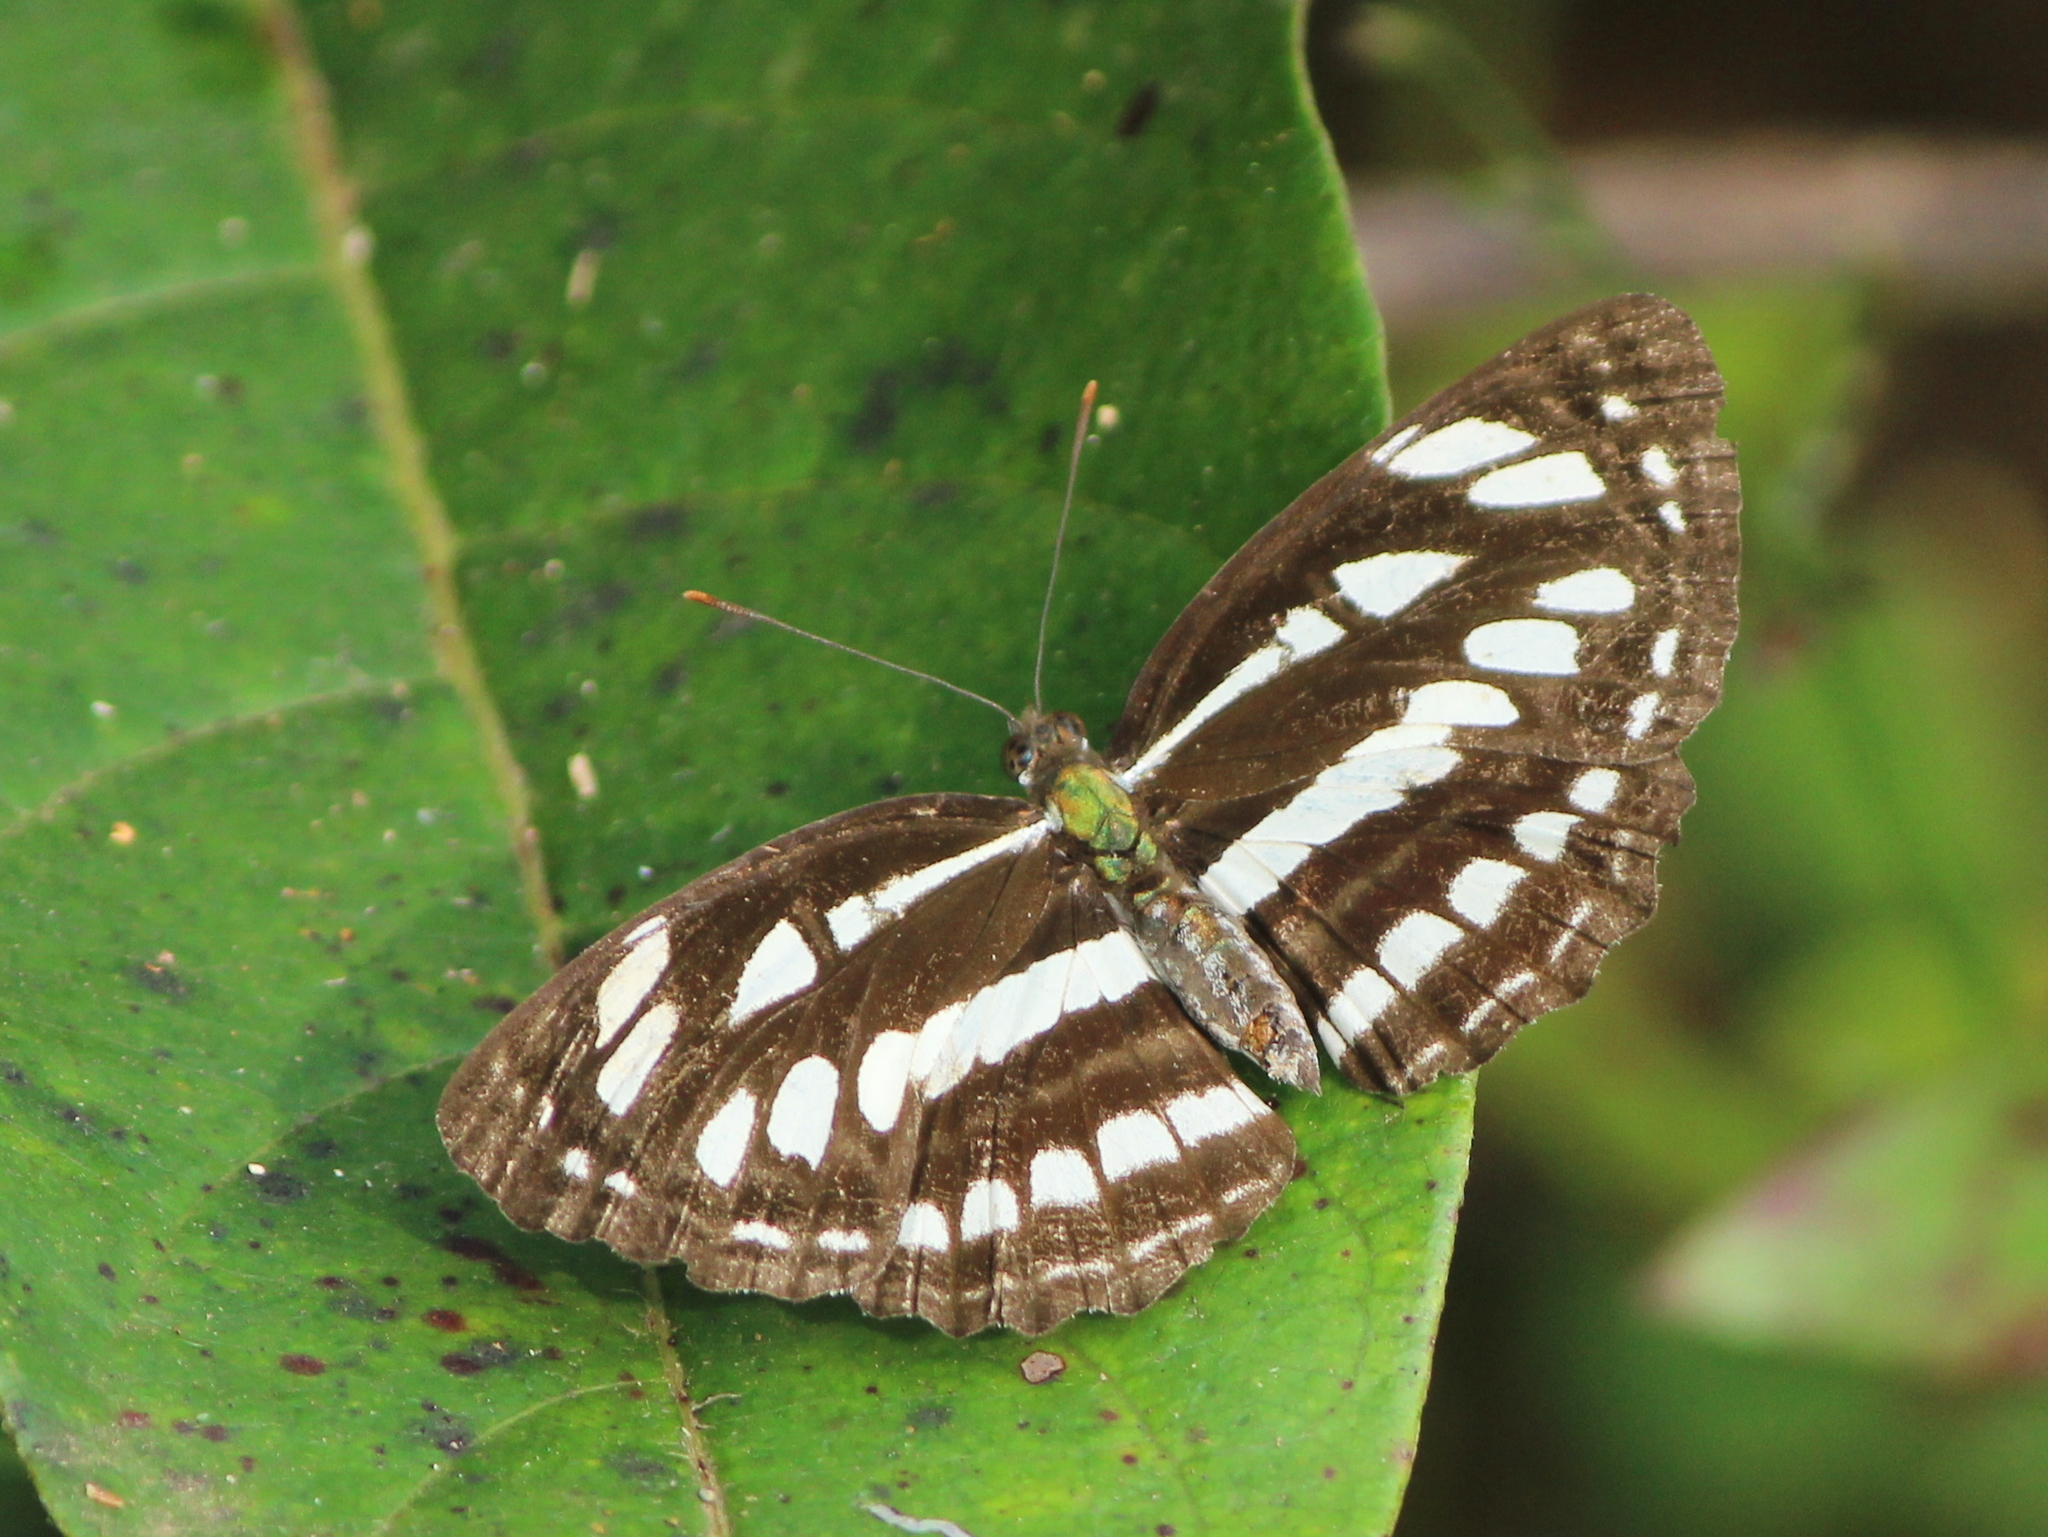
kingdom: Animalia
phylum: Arthropoda
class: Insecta
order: Lepidoptera
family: Nymphalidae
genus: Neptis
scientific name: Neptis hylas
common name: Common sailer
